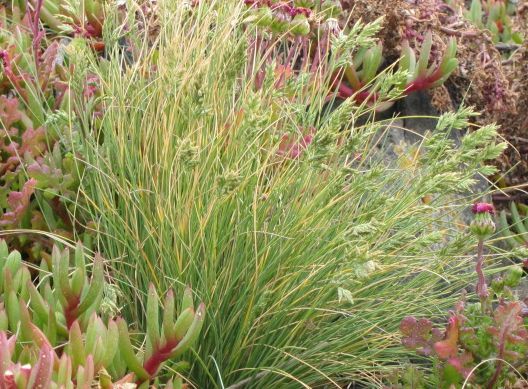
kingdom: Plantae
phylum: Tracheophyta
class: Liliopsida
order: Poales
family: Poaceae
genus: Poa
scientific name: Poa astonii
